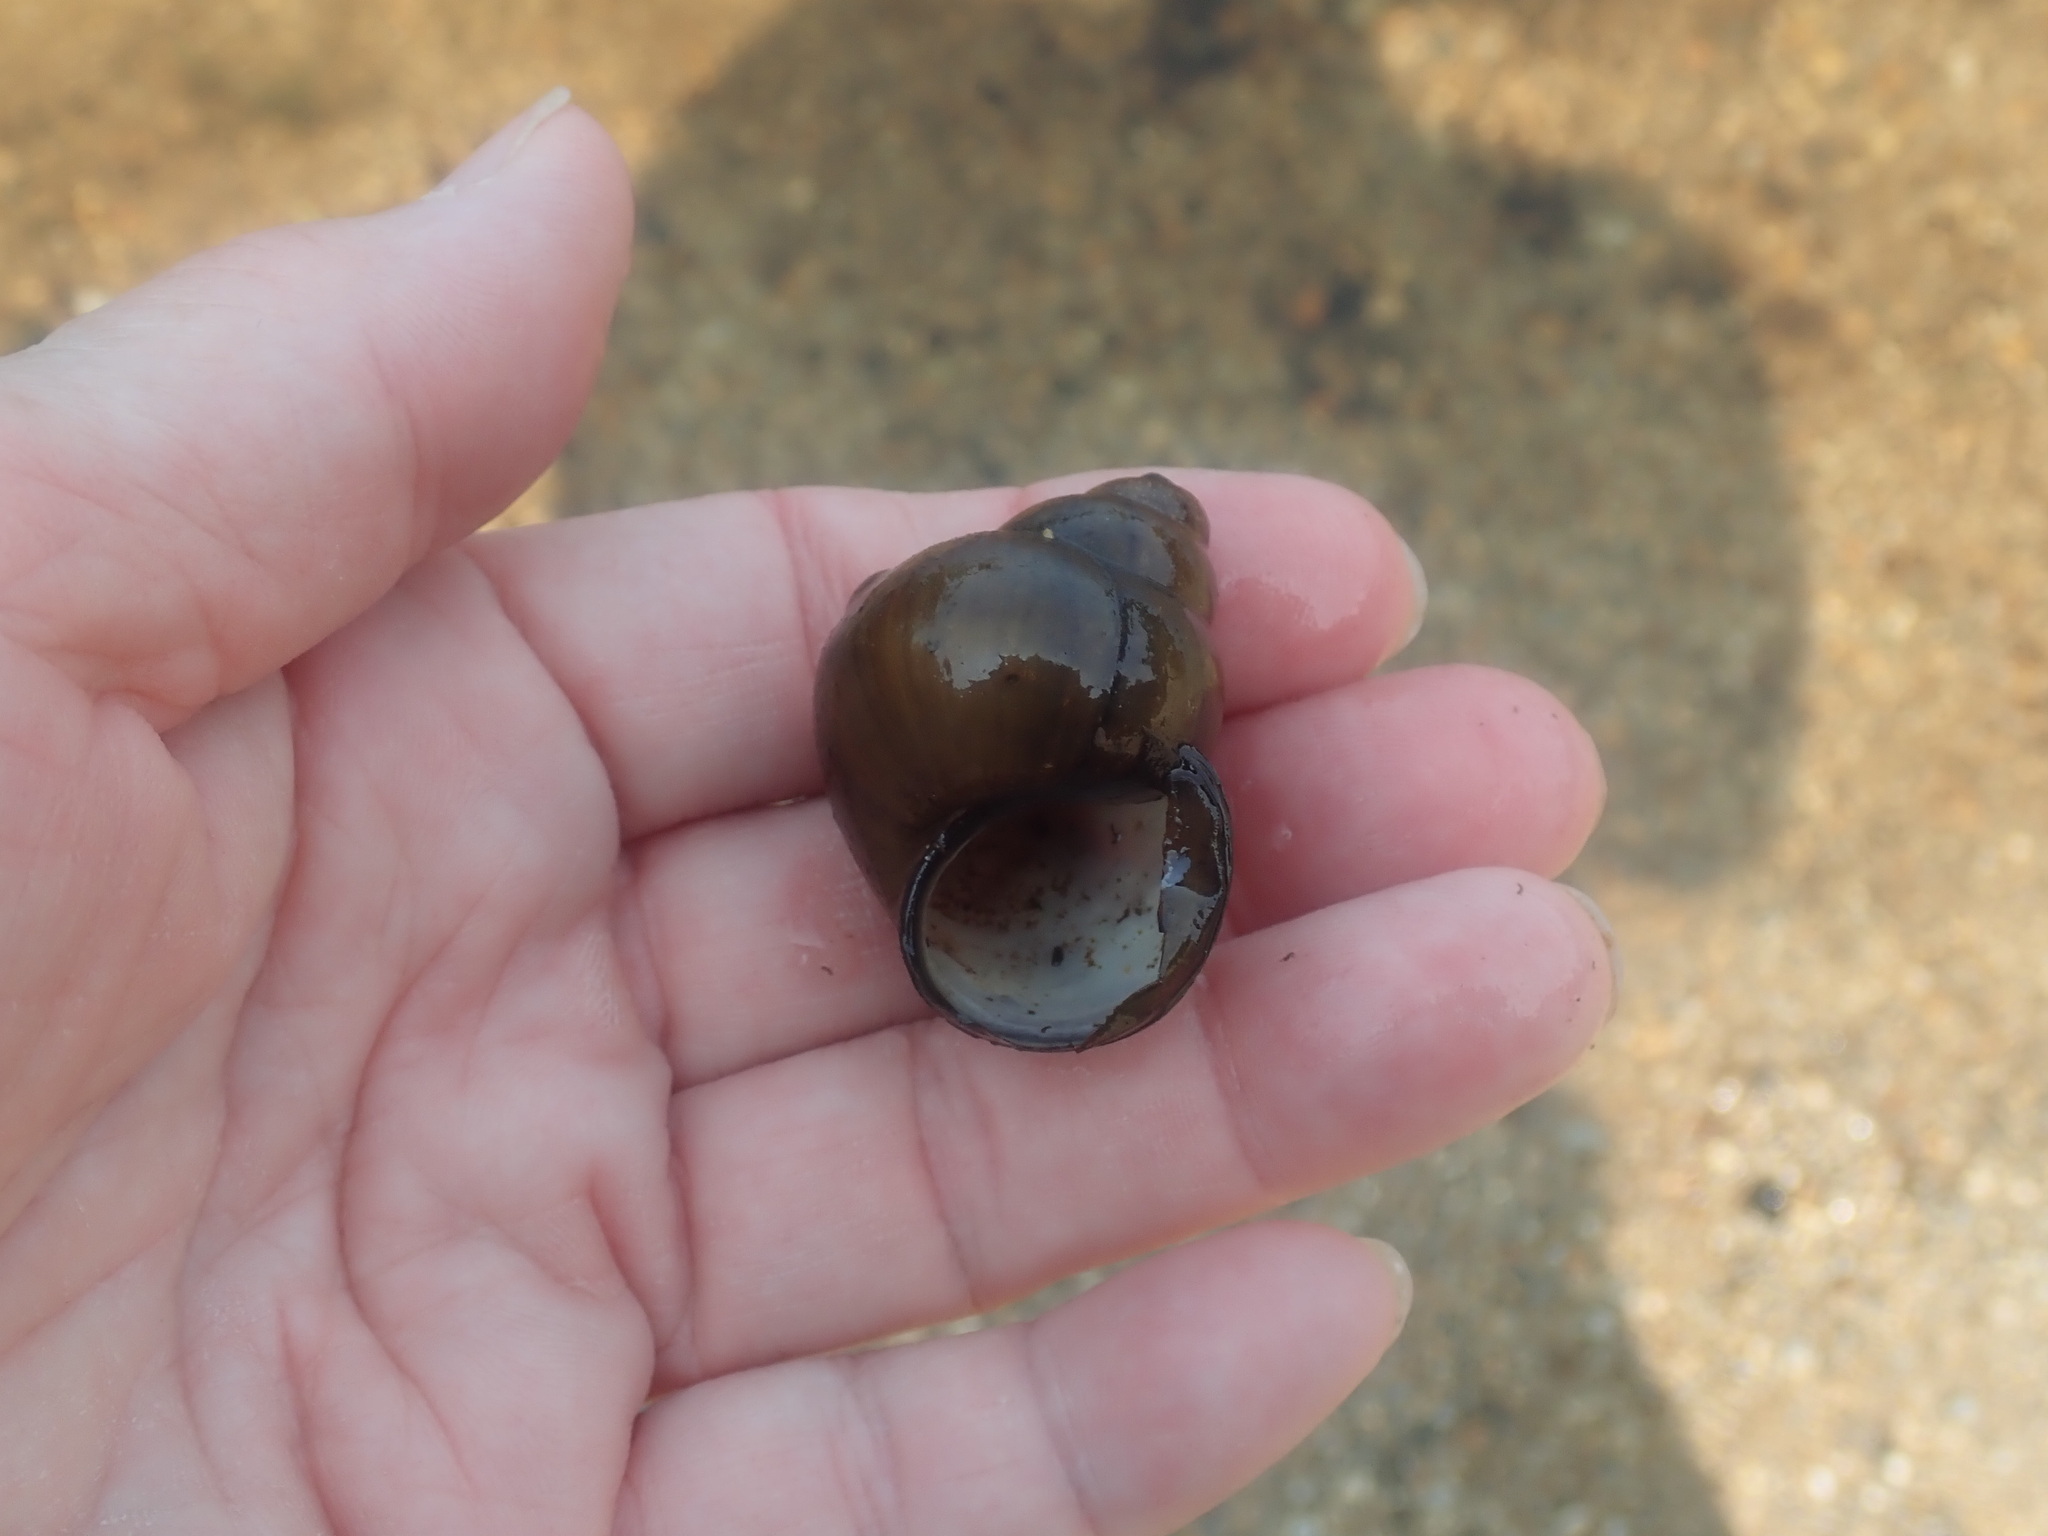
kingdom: Animalia
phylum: Mollusca
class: Gastropoda
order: Architaenioglossa
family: Viviparidae
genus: Cipangopaludina
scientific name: Cipangopaludina chinensis
